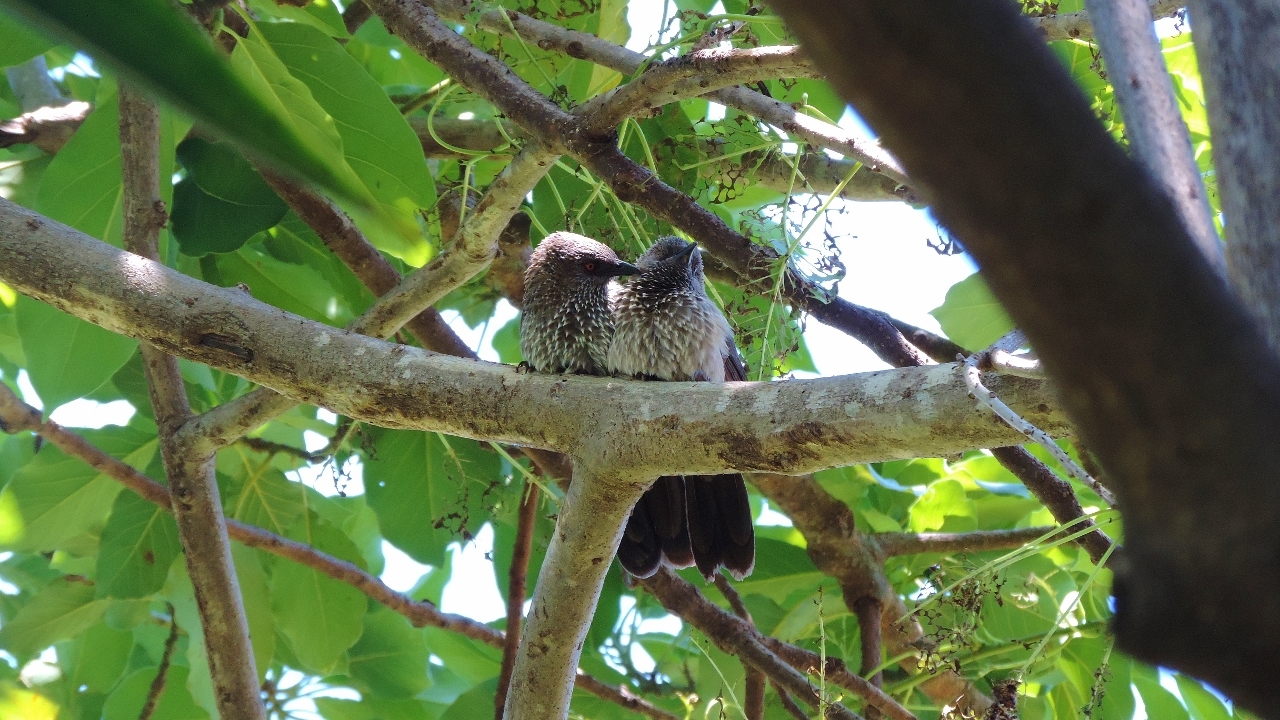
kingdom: Animalia
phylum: Chordata
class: Aves
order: Passeriformes
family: Leiothrichidae
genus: Turdoides
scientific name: Turdoides jardineii
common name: Arrow-marked babbler
